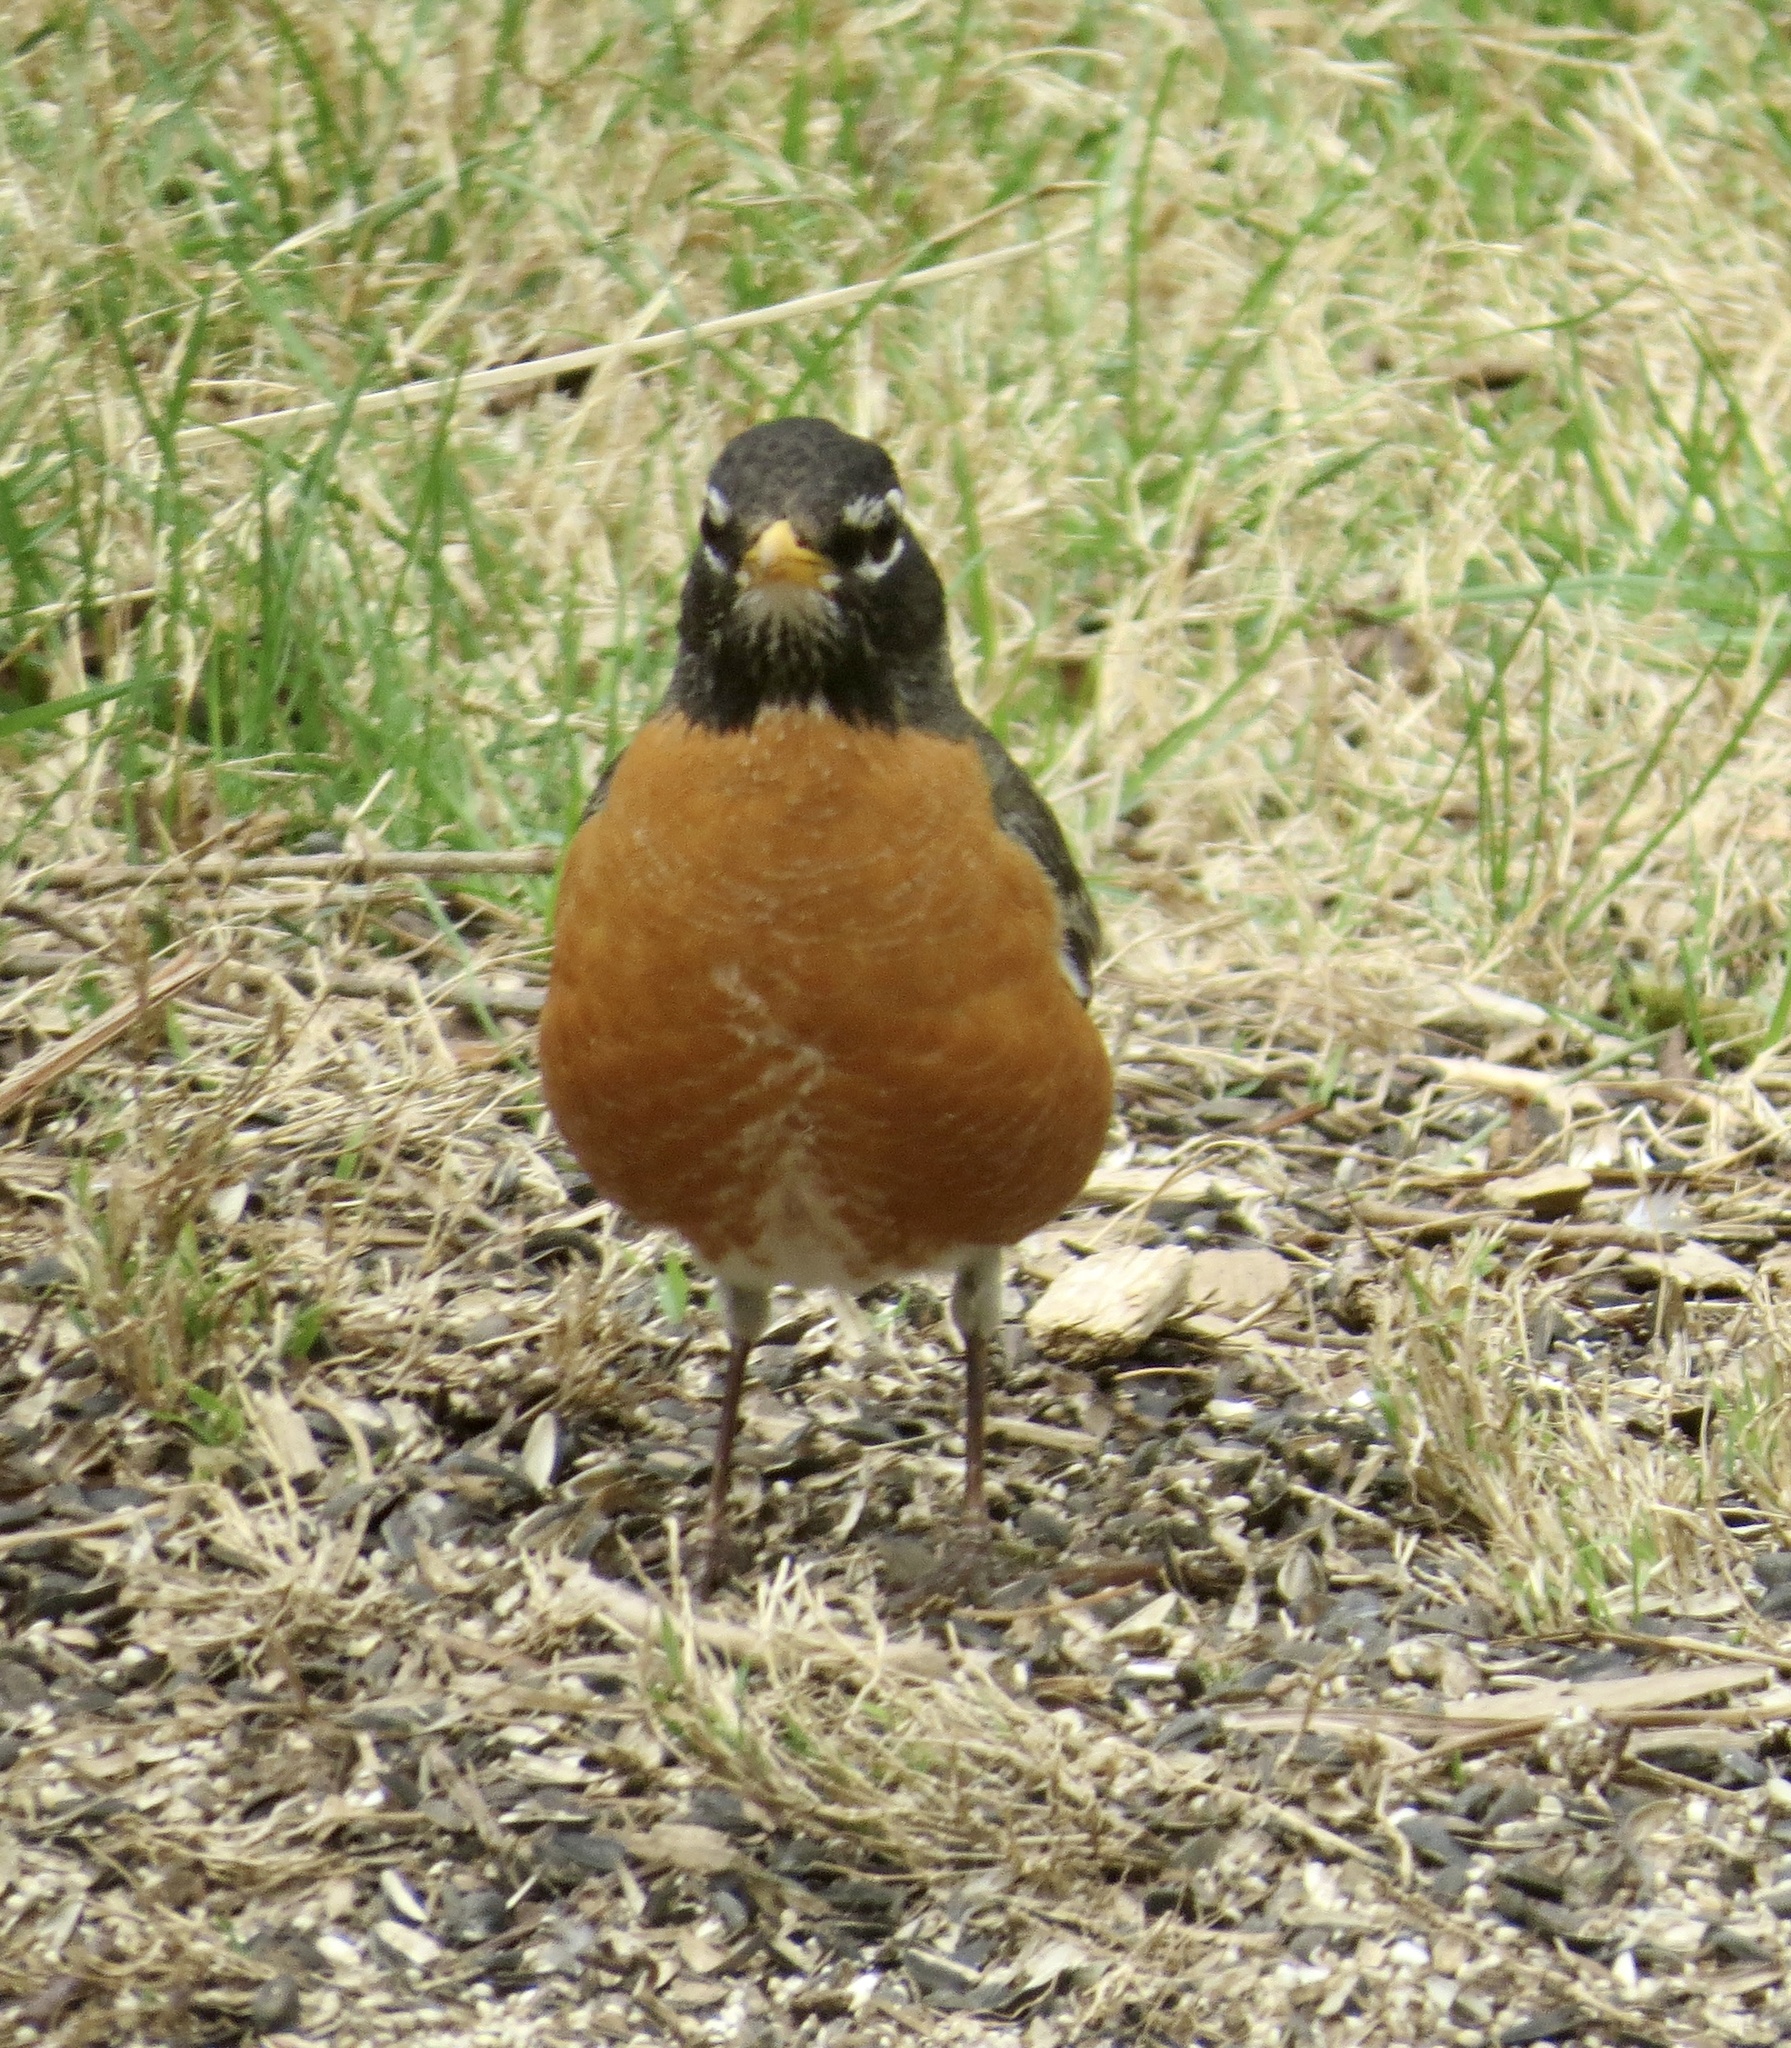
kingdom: Animalia
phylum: Chordata
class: Aves
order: Passeriformes
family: Turdidae
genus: Turdus
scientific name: Turdus migratorius
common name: American robin
